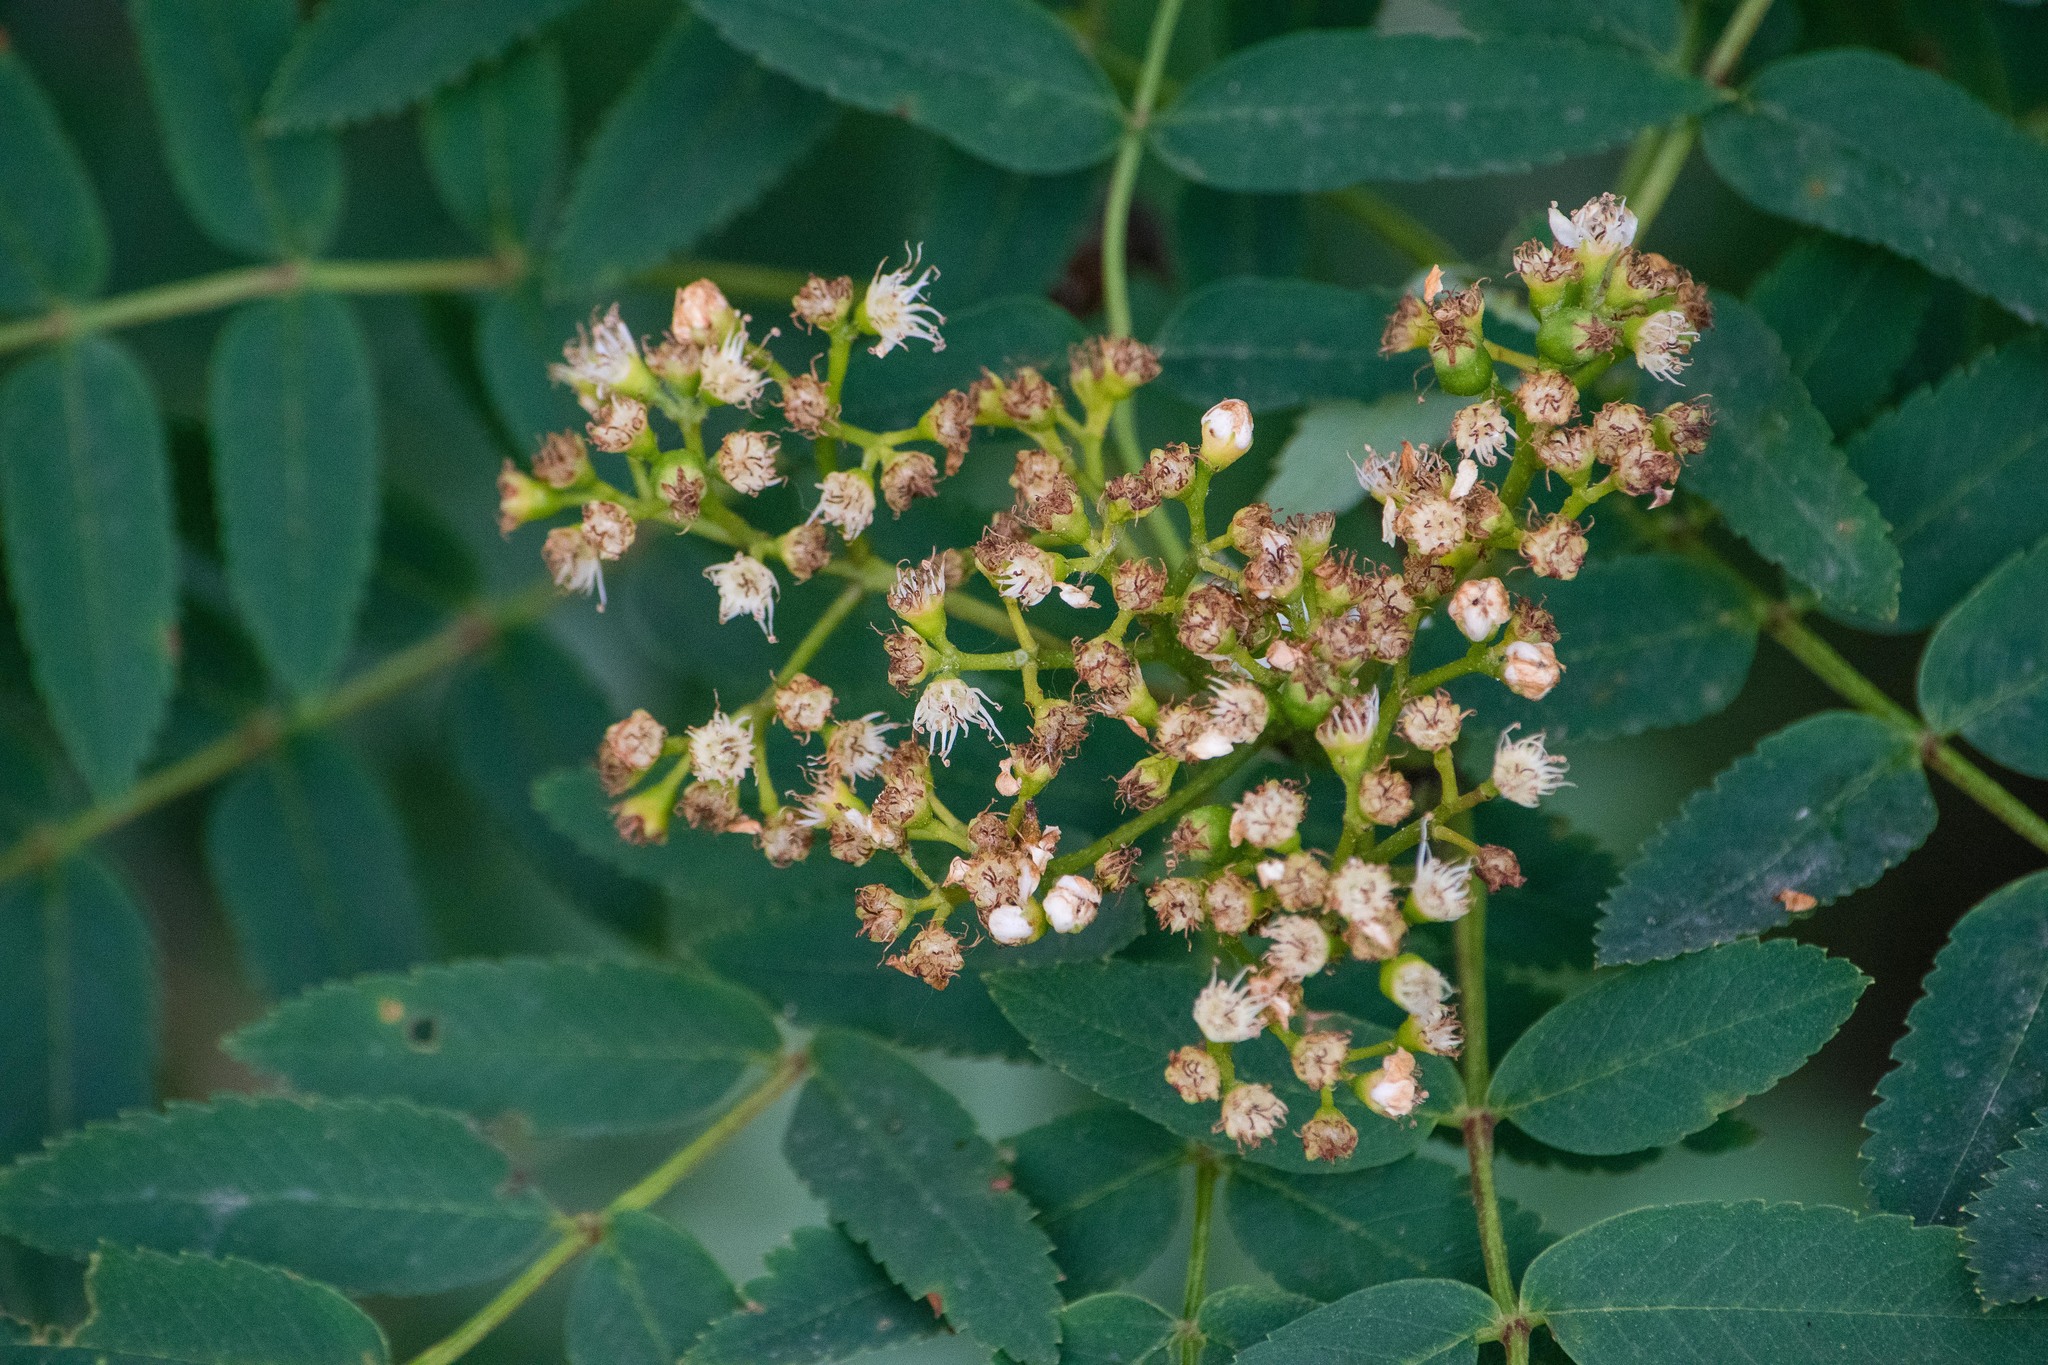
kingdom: Plantae
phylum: Tracheophyta
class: Magnoliopsida
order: Rosales
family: Rosaceae
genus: Sorbus
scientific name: Sorbus aucuparia
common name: Rowan
